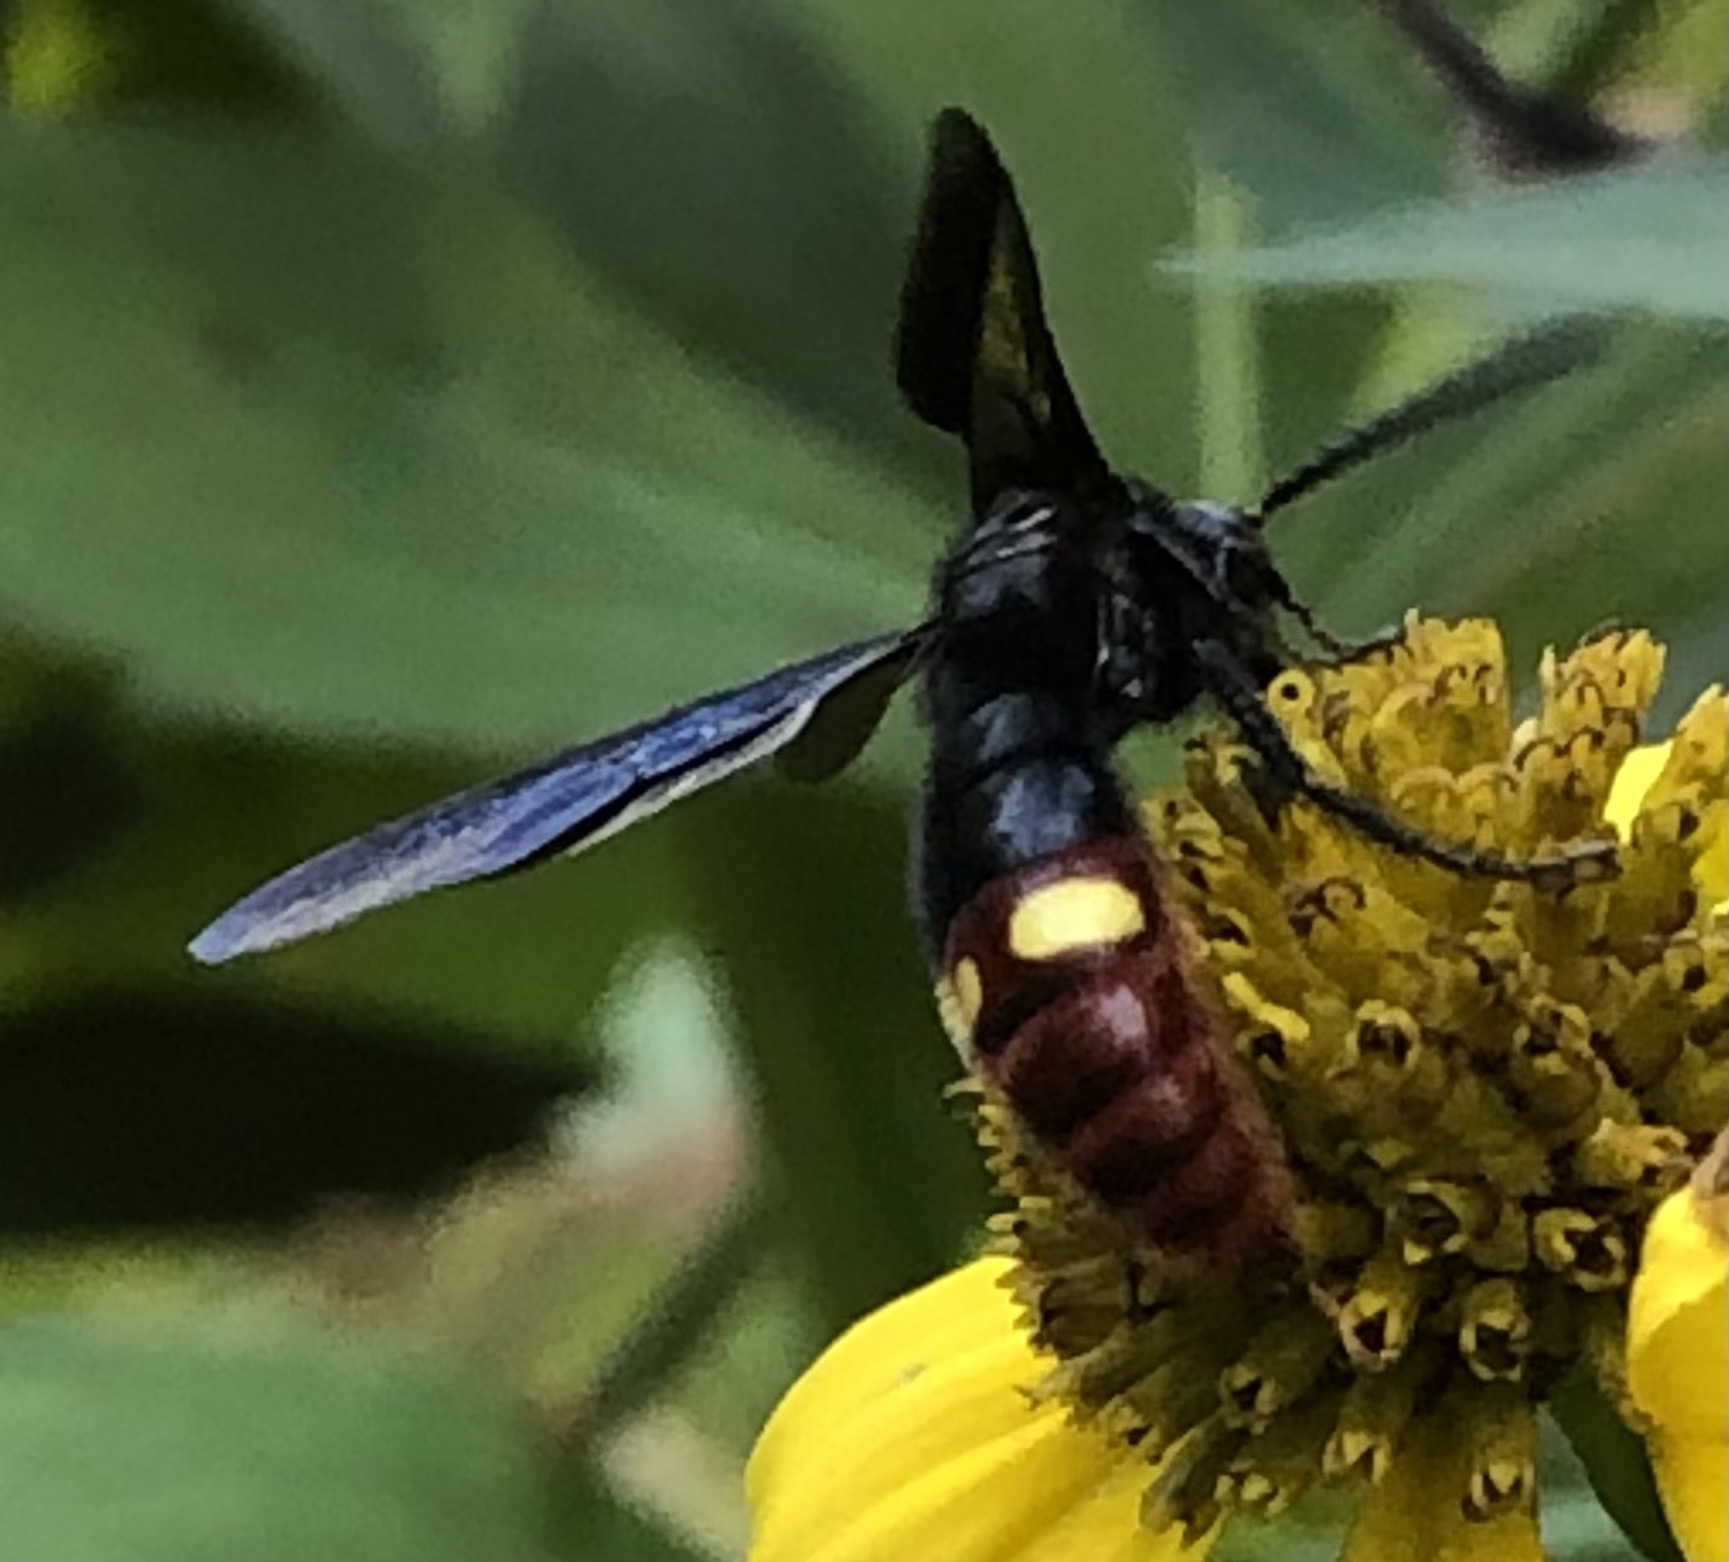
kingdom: Animalia
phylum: Arthropoda
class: Insecta
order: Hymenoptera
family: Scoliidae
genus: Scolia
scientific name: Scolia dubia
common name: Blue-winged scoliid wasp
